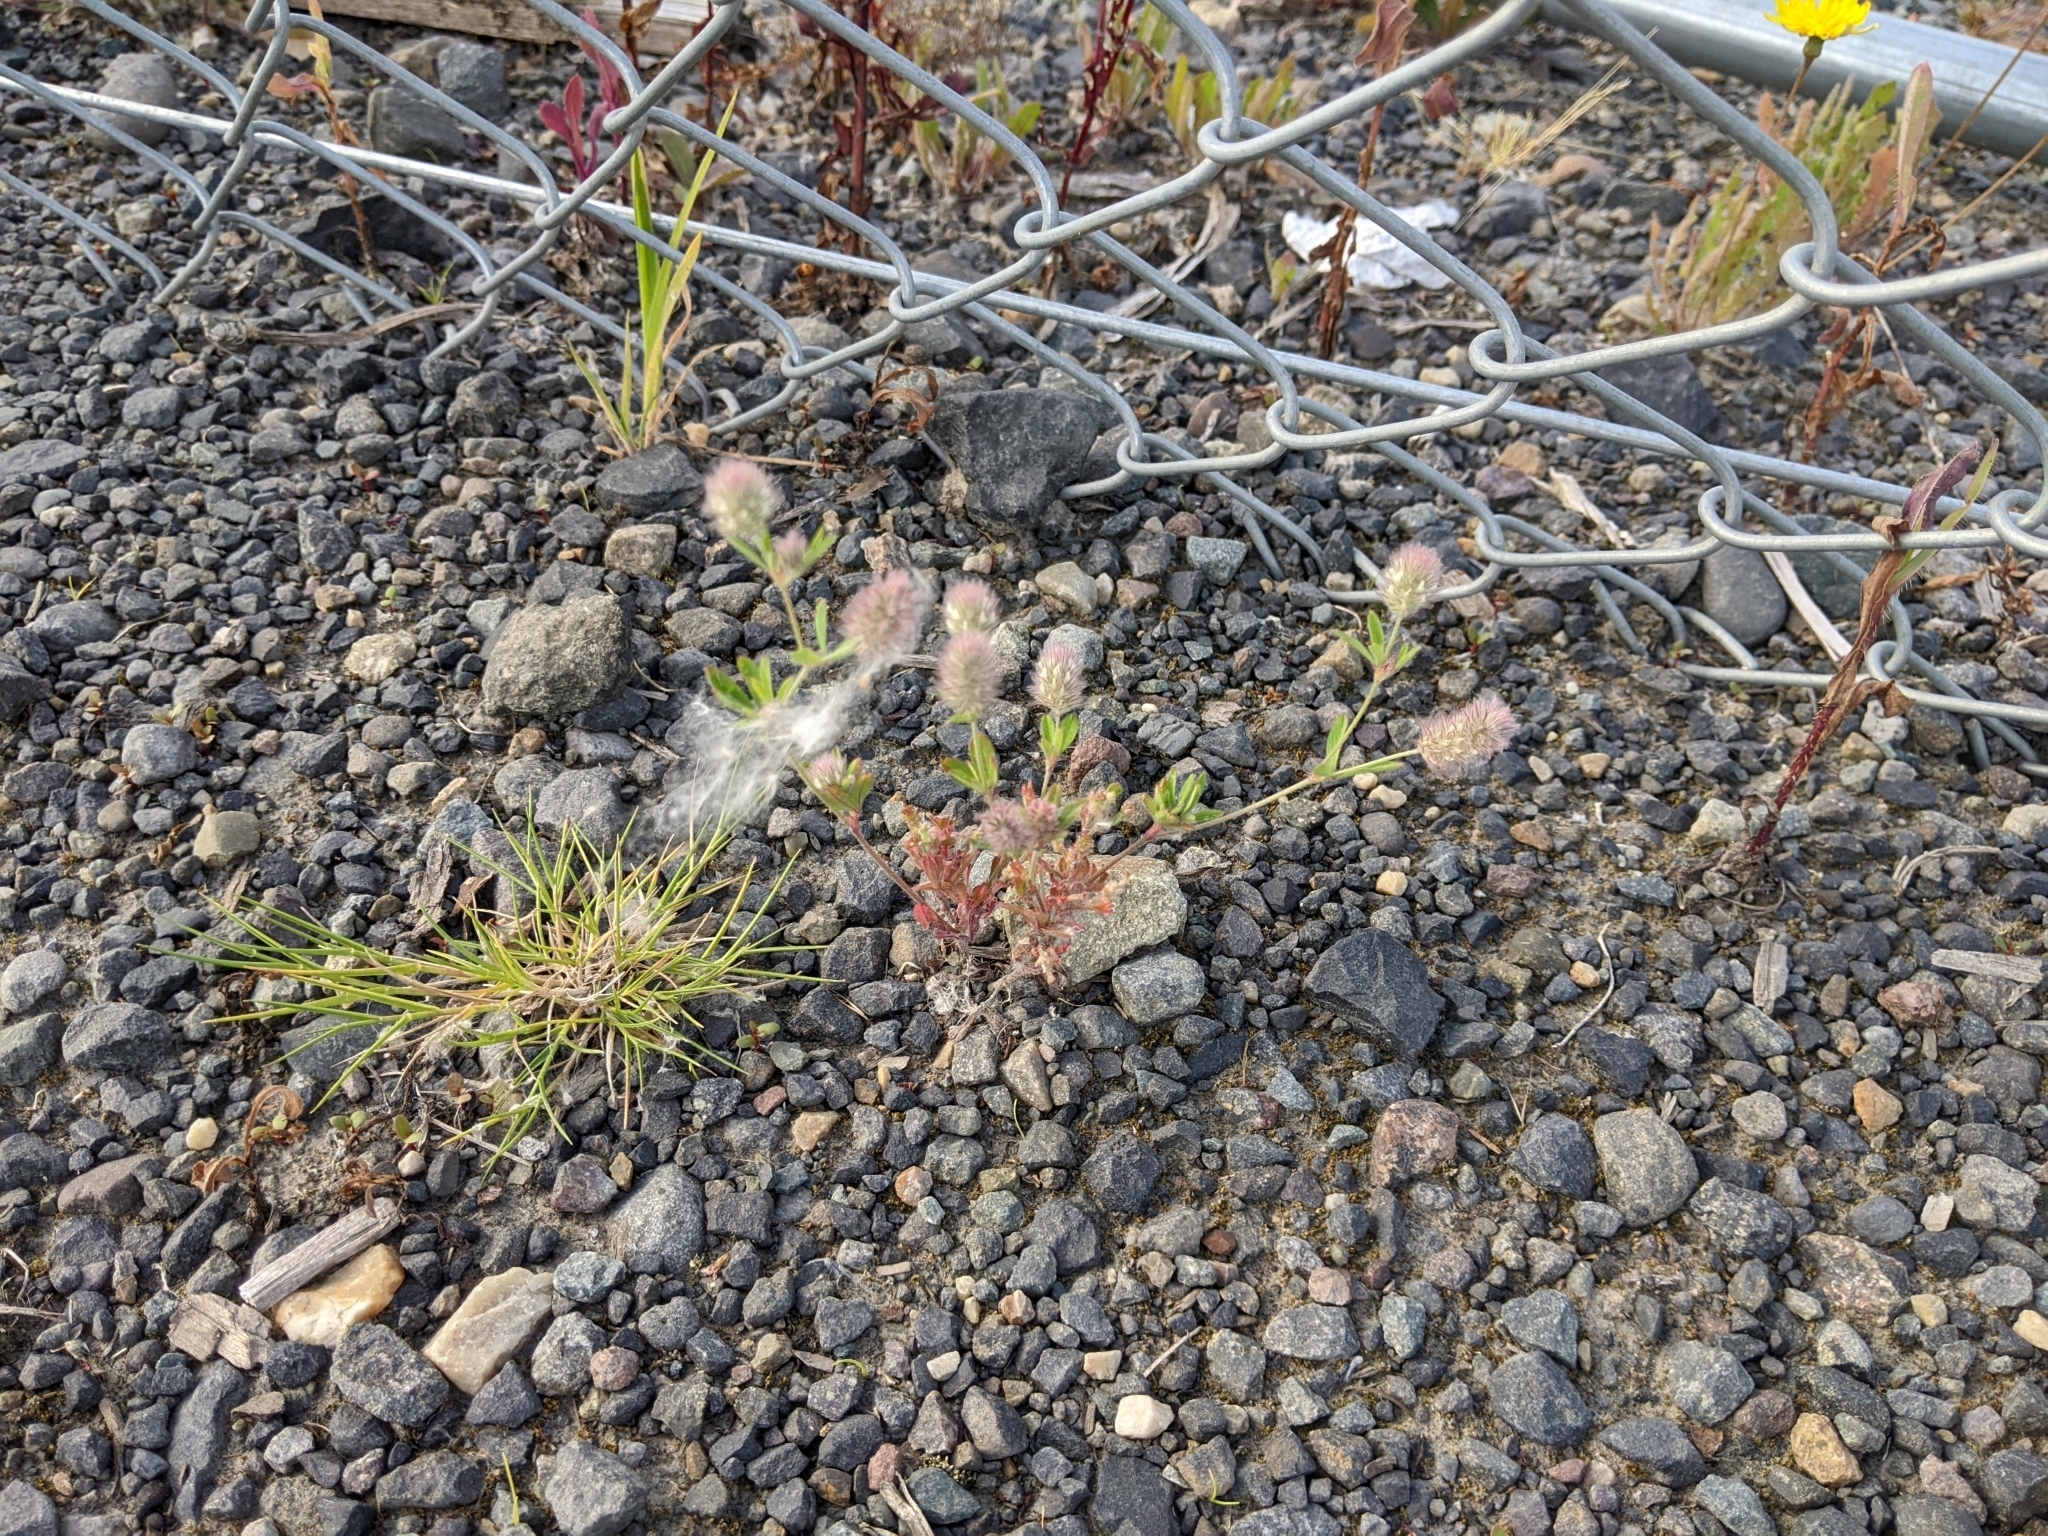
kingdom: Plantae
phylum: Tracheophyta
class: Magnoliopsida
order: Fabales
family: Fabaceae
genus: Trifolium
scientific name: Trifolium arvense
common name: Hare's-foot clover
